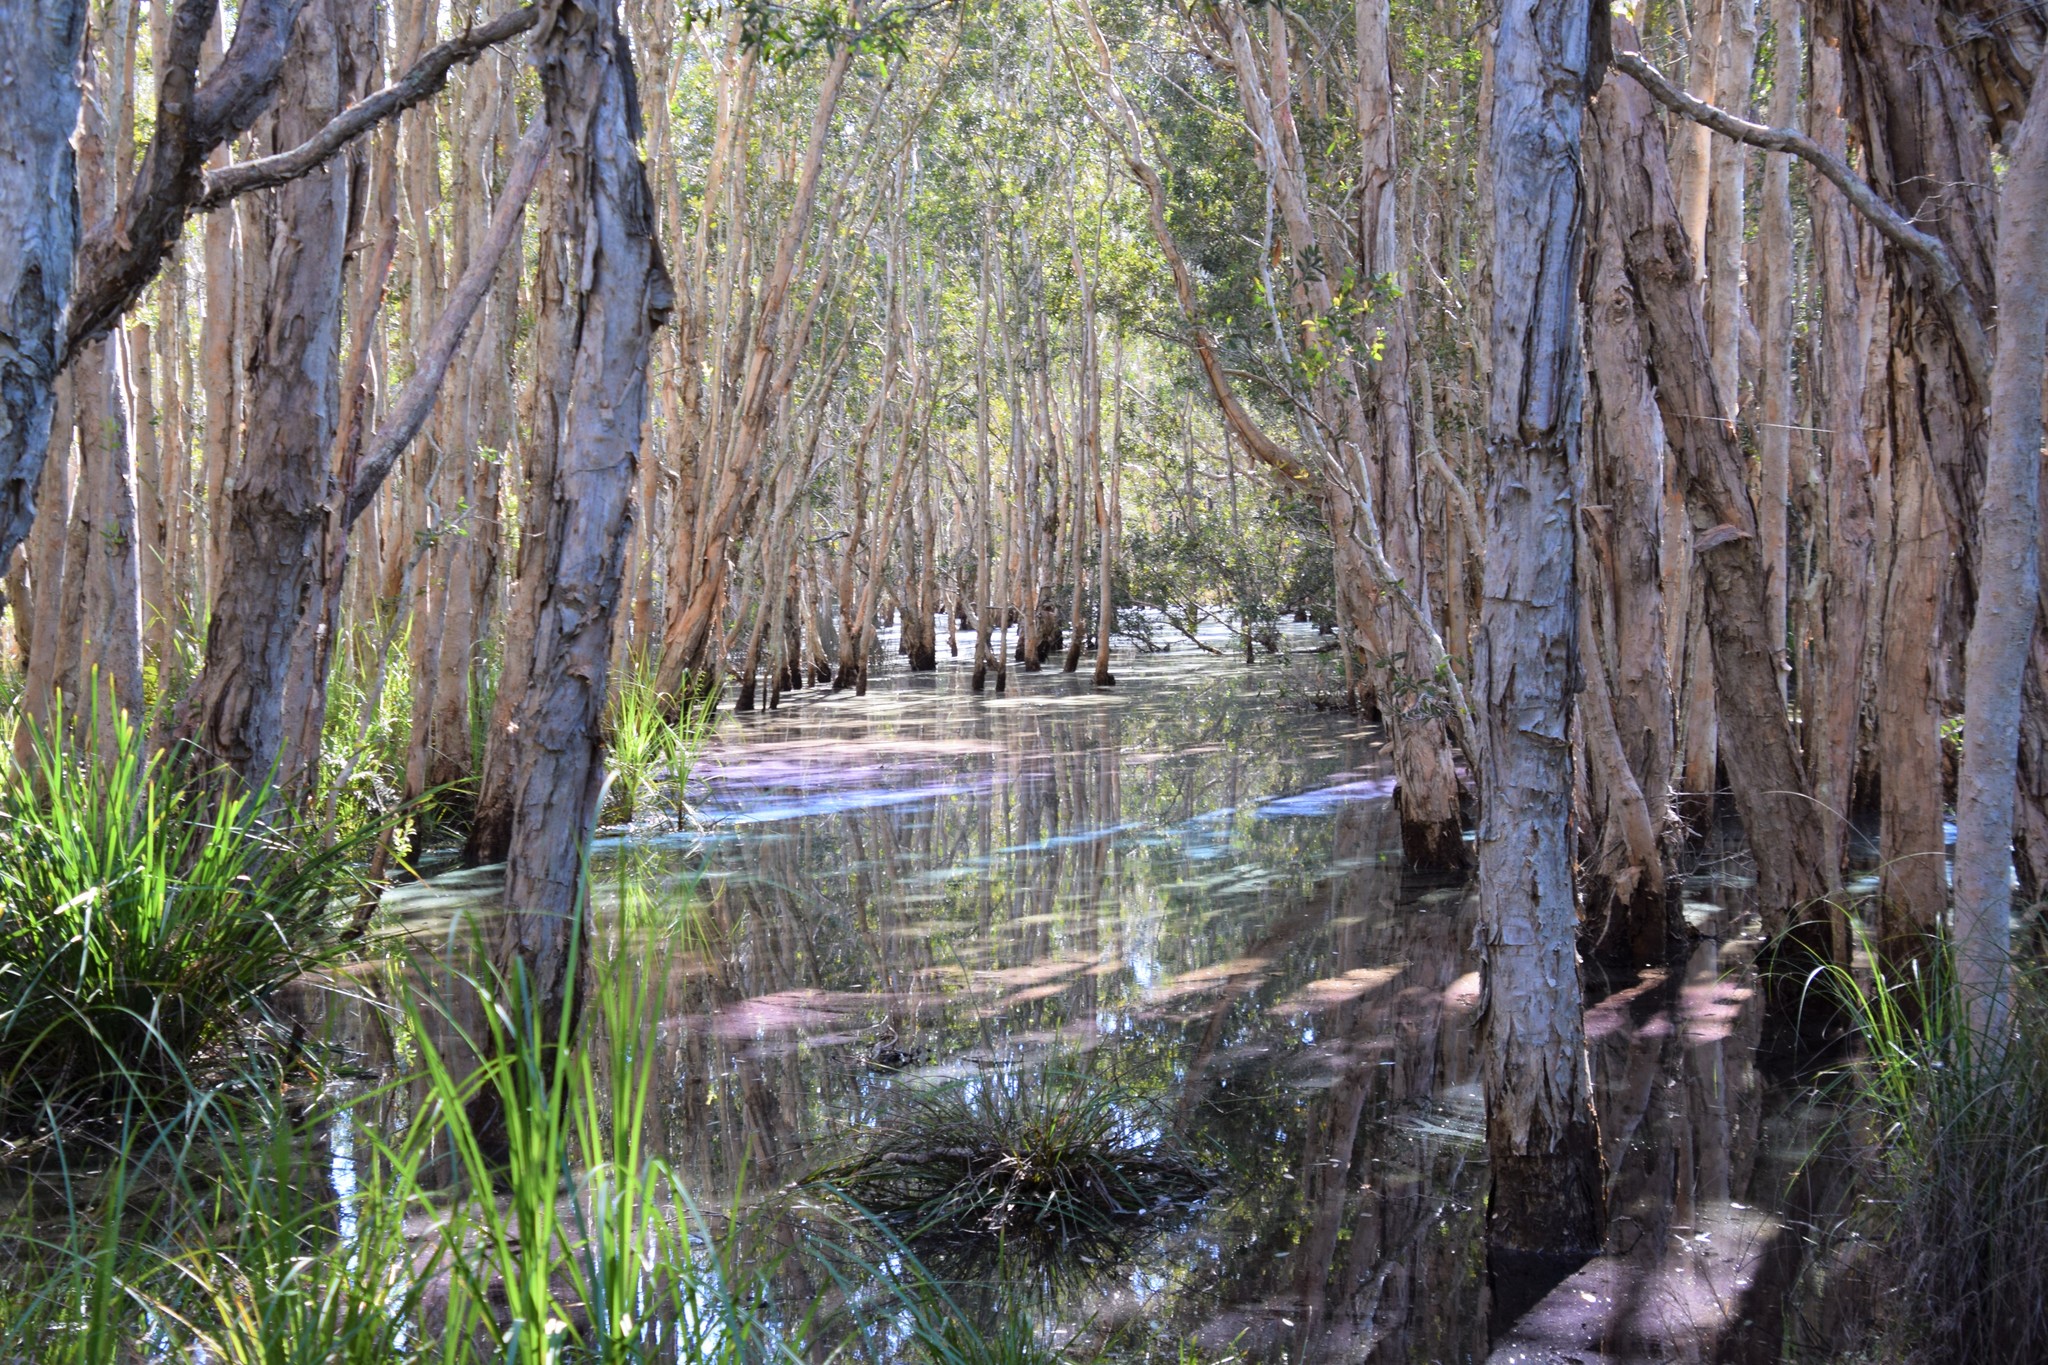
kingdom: Plantae
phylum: Tracheophyta
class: Magnoliopsida
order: Myrtales
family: Myrtaceae
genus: Melaleuca
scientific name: Melaleuca quinquenervia
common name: Punktree
